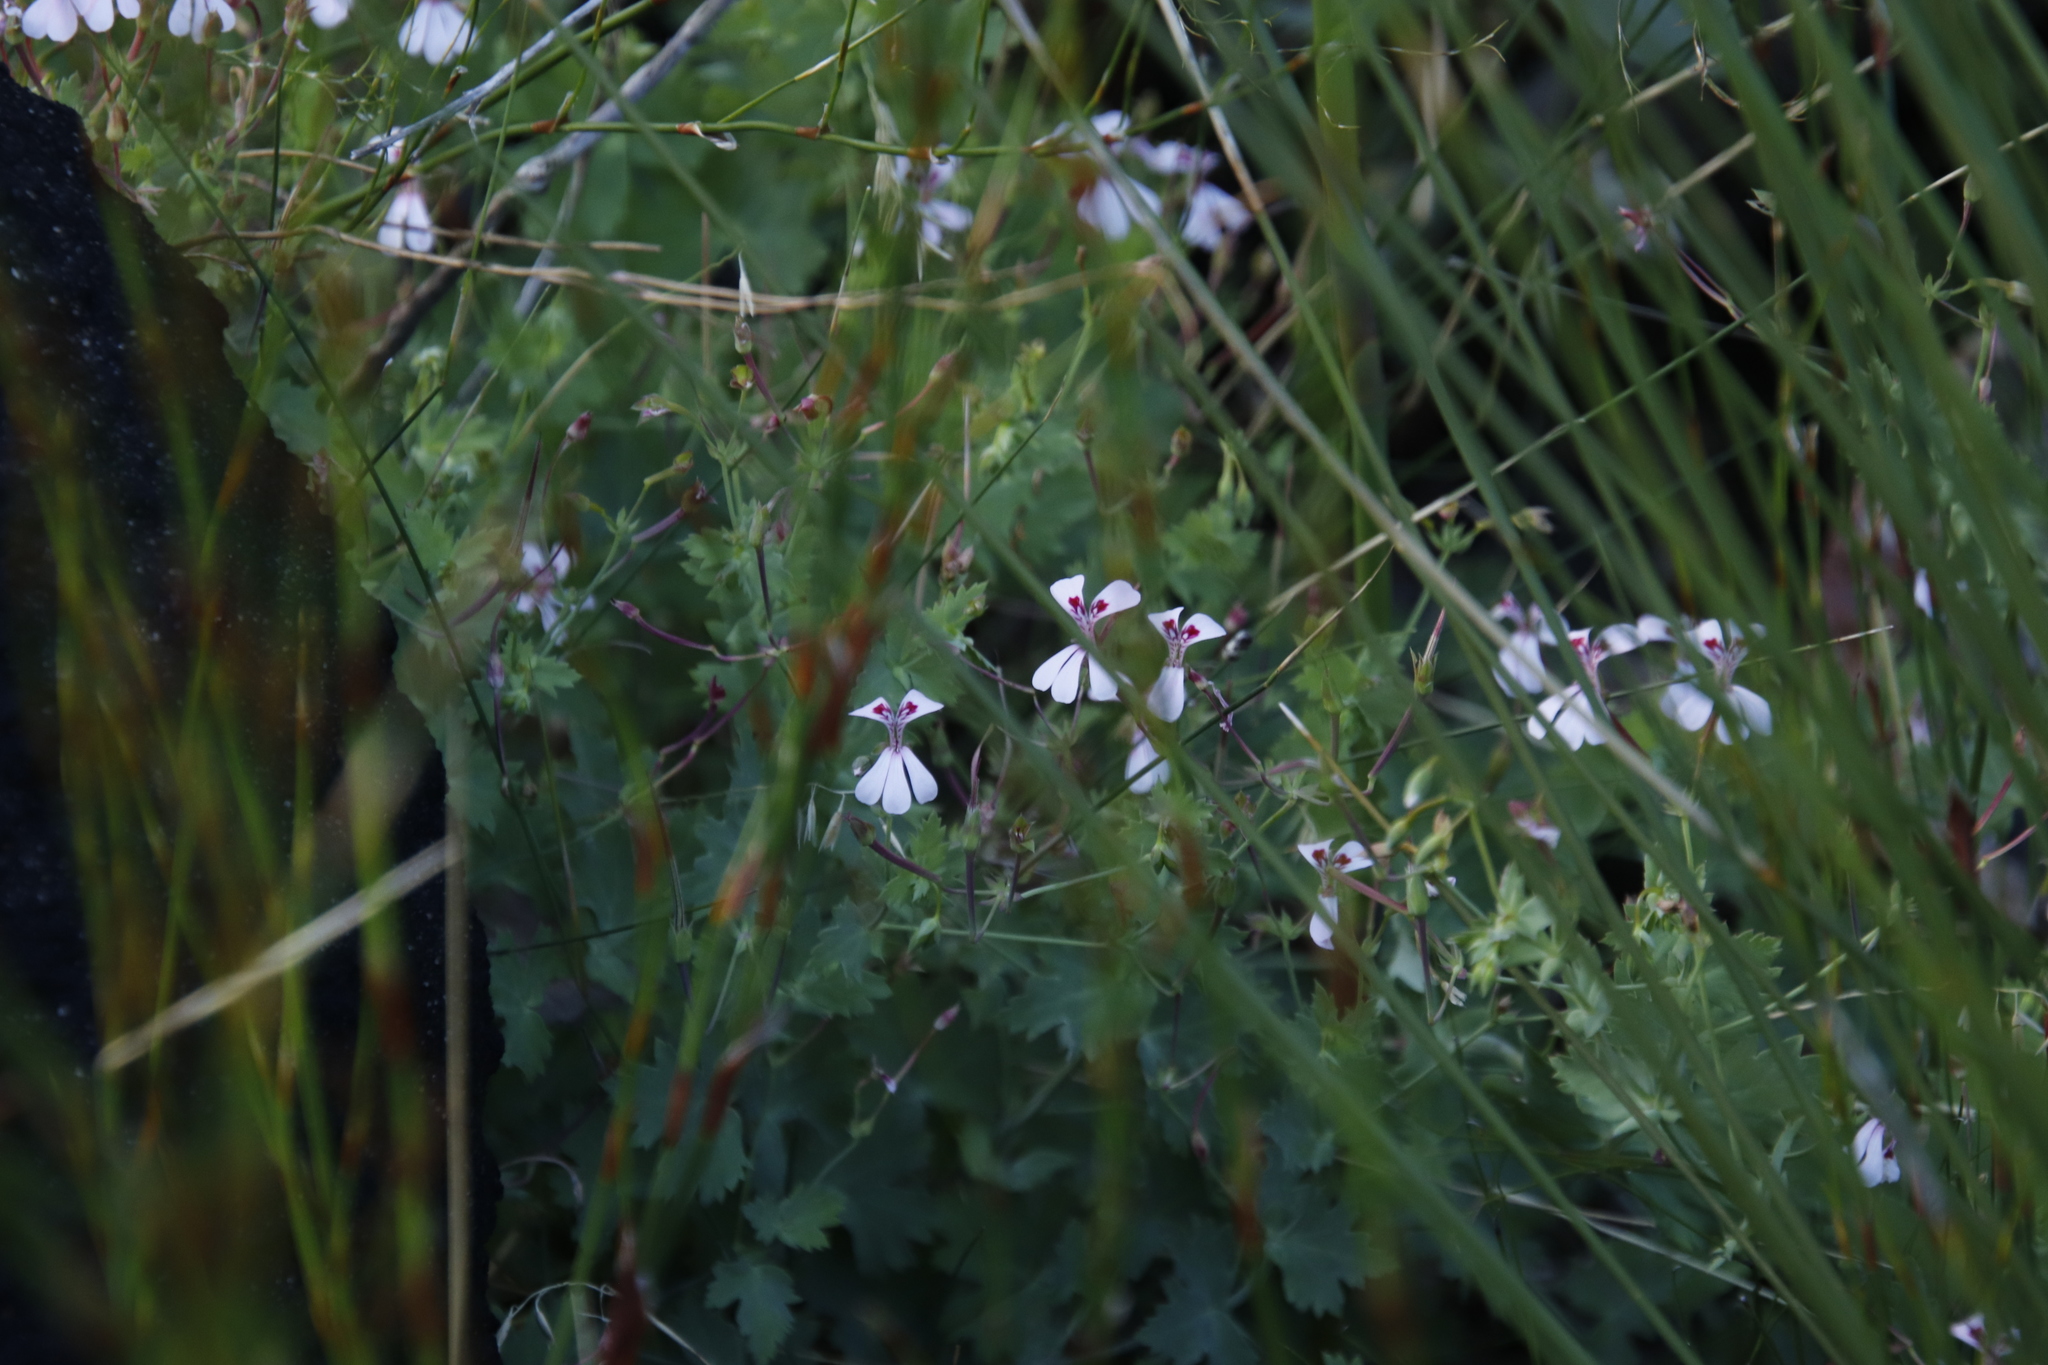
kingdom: Plantae
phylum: Tracheophyta
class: Magnoliopsida
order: Geraniales
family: Geraniaceae
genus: Pelargonium
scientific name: Pelargonium patulum
